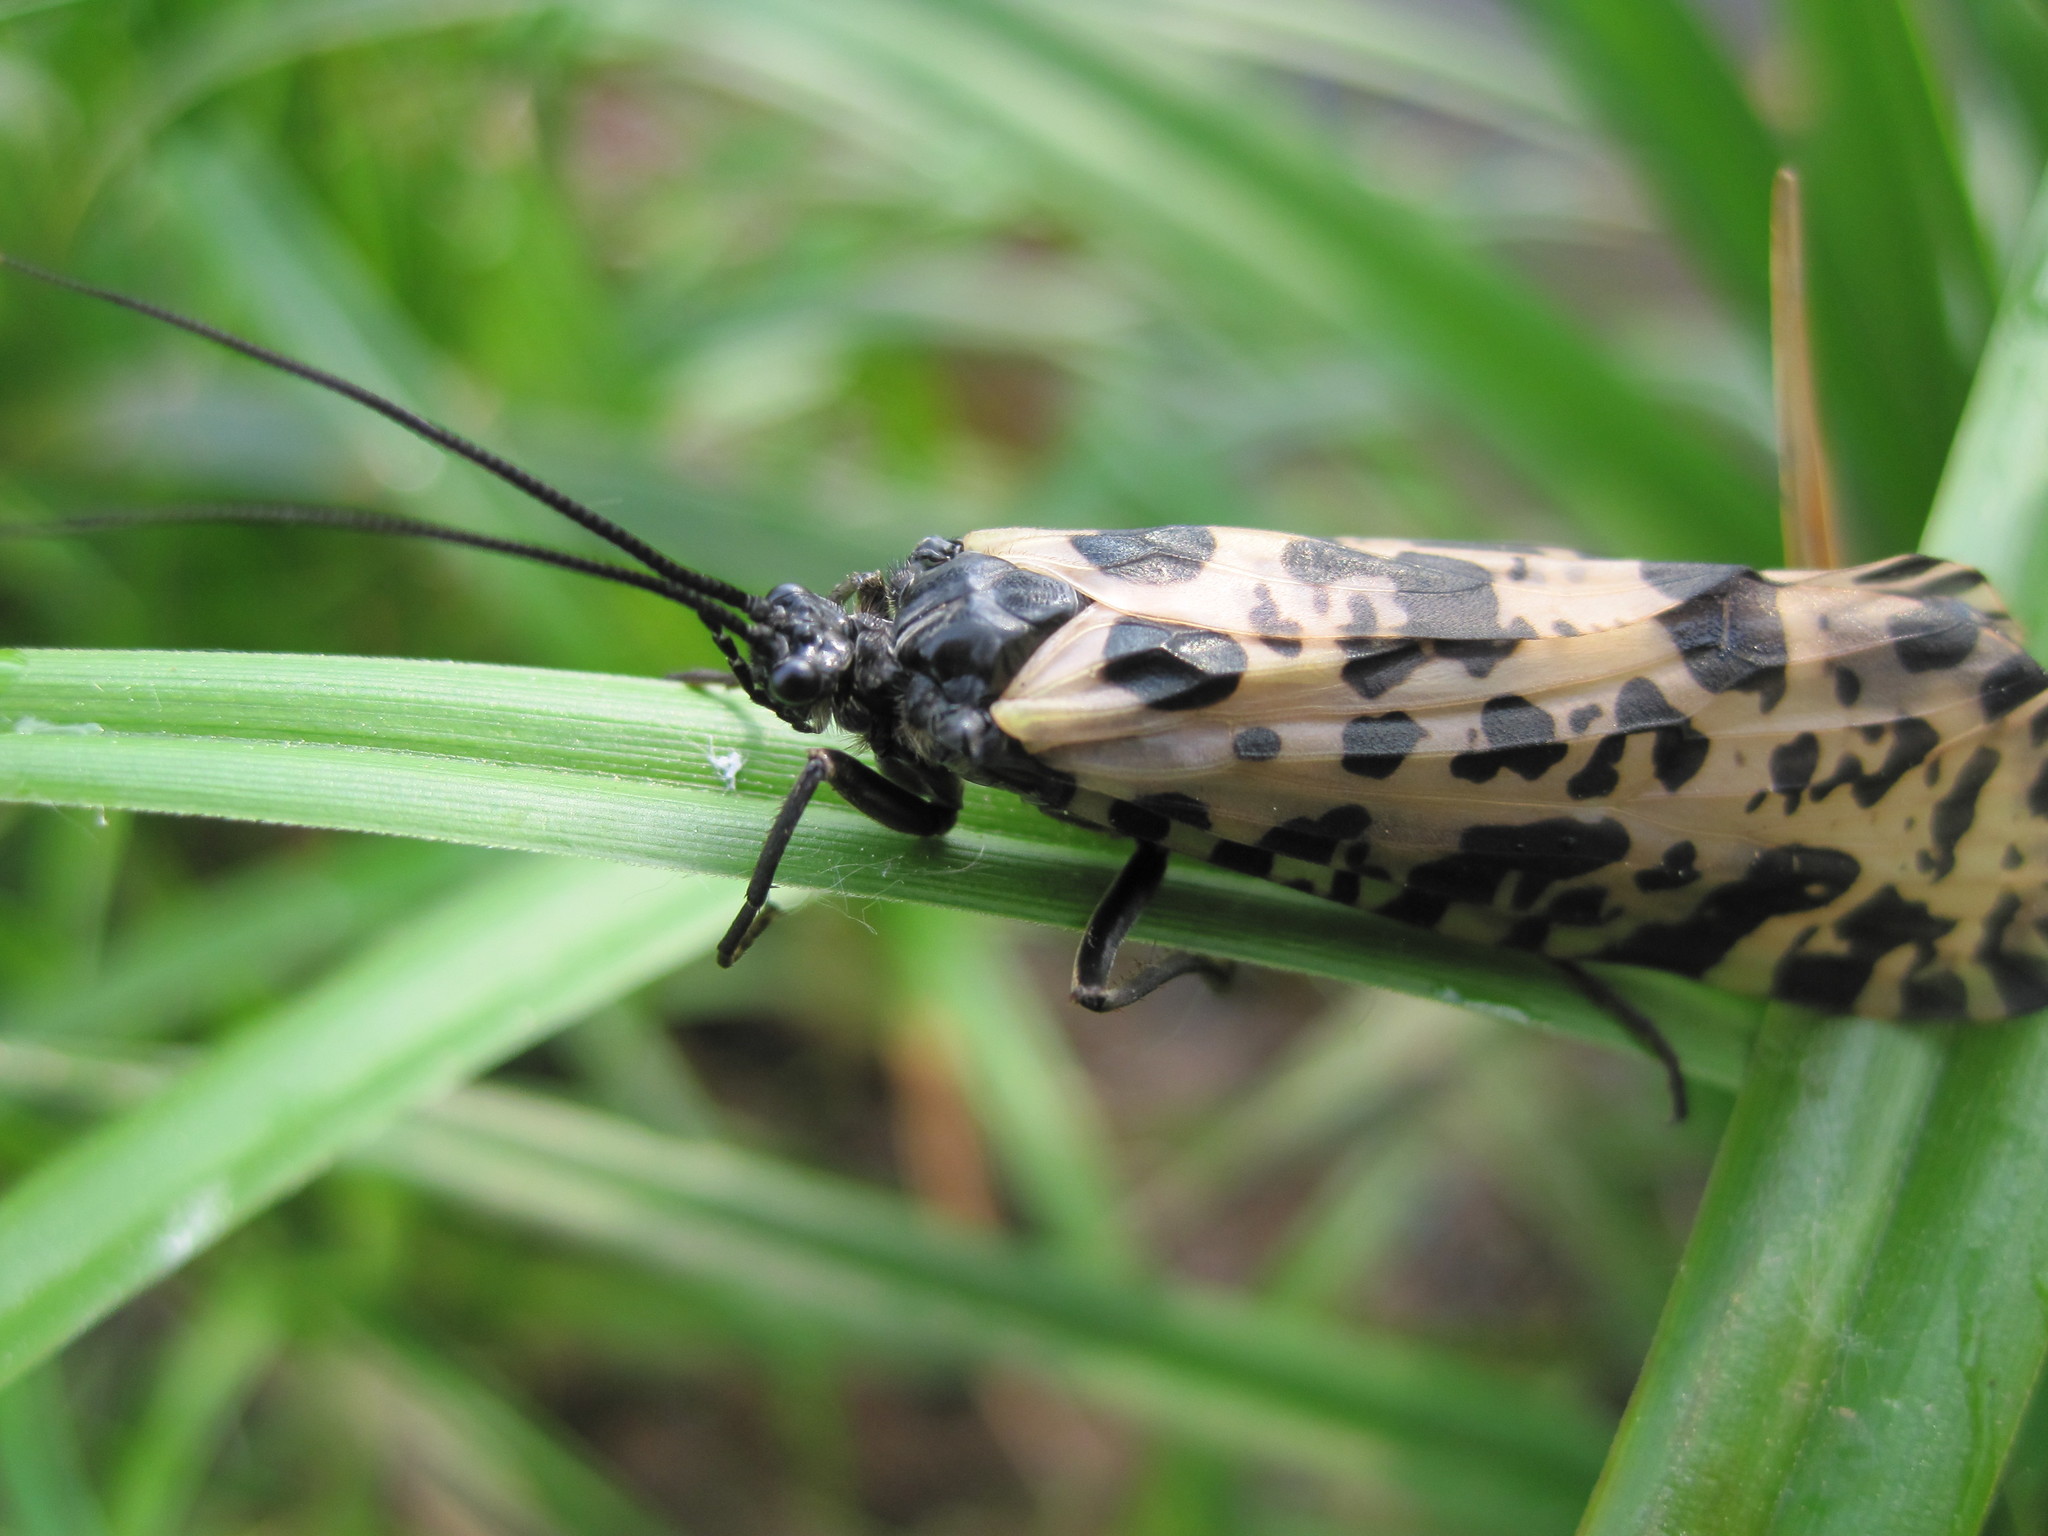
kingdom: Animalia
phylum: Arthropoda
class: Insecta
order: Trichoptera
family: Phryganeidae
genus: Semblis
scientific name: Semblis phalaenoides
